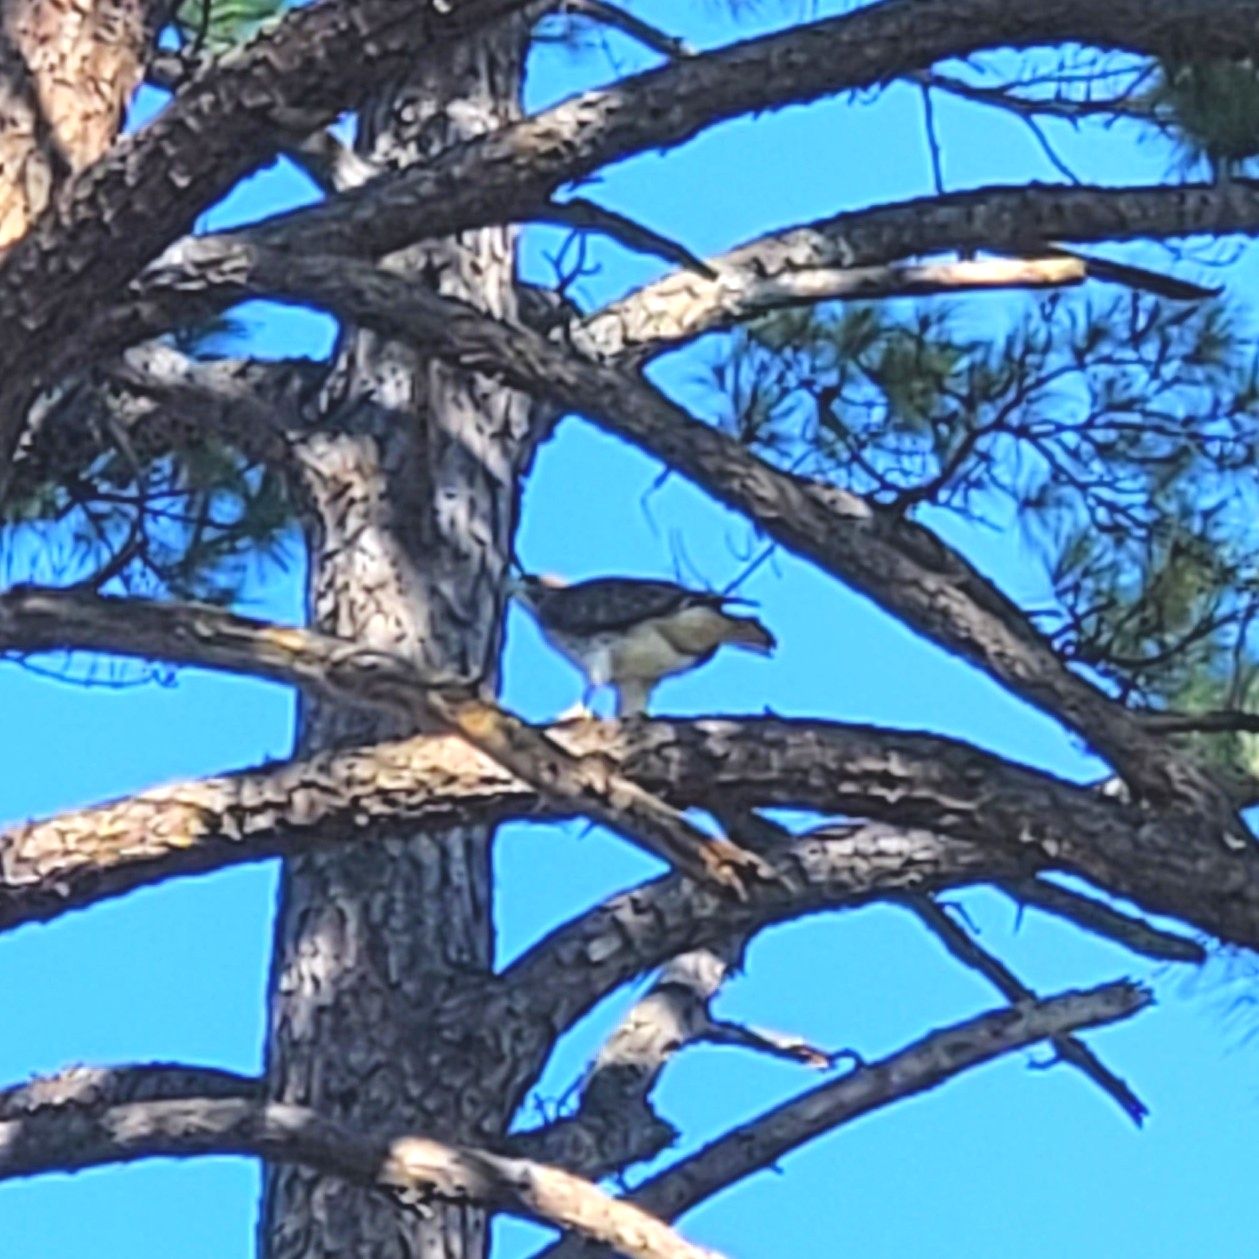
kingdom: Animalia
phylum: Chordata
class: Aves
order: Accipitriformes
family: Accipitridae
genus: Buteo
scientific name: Buteo jamaicensis
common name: Red-tailed hawk
